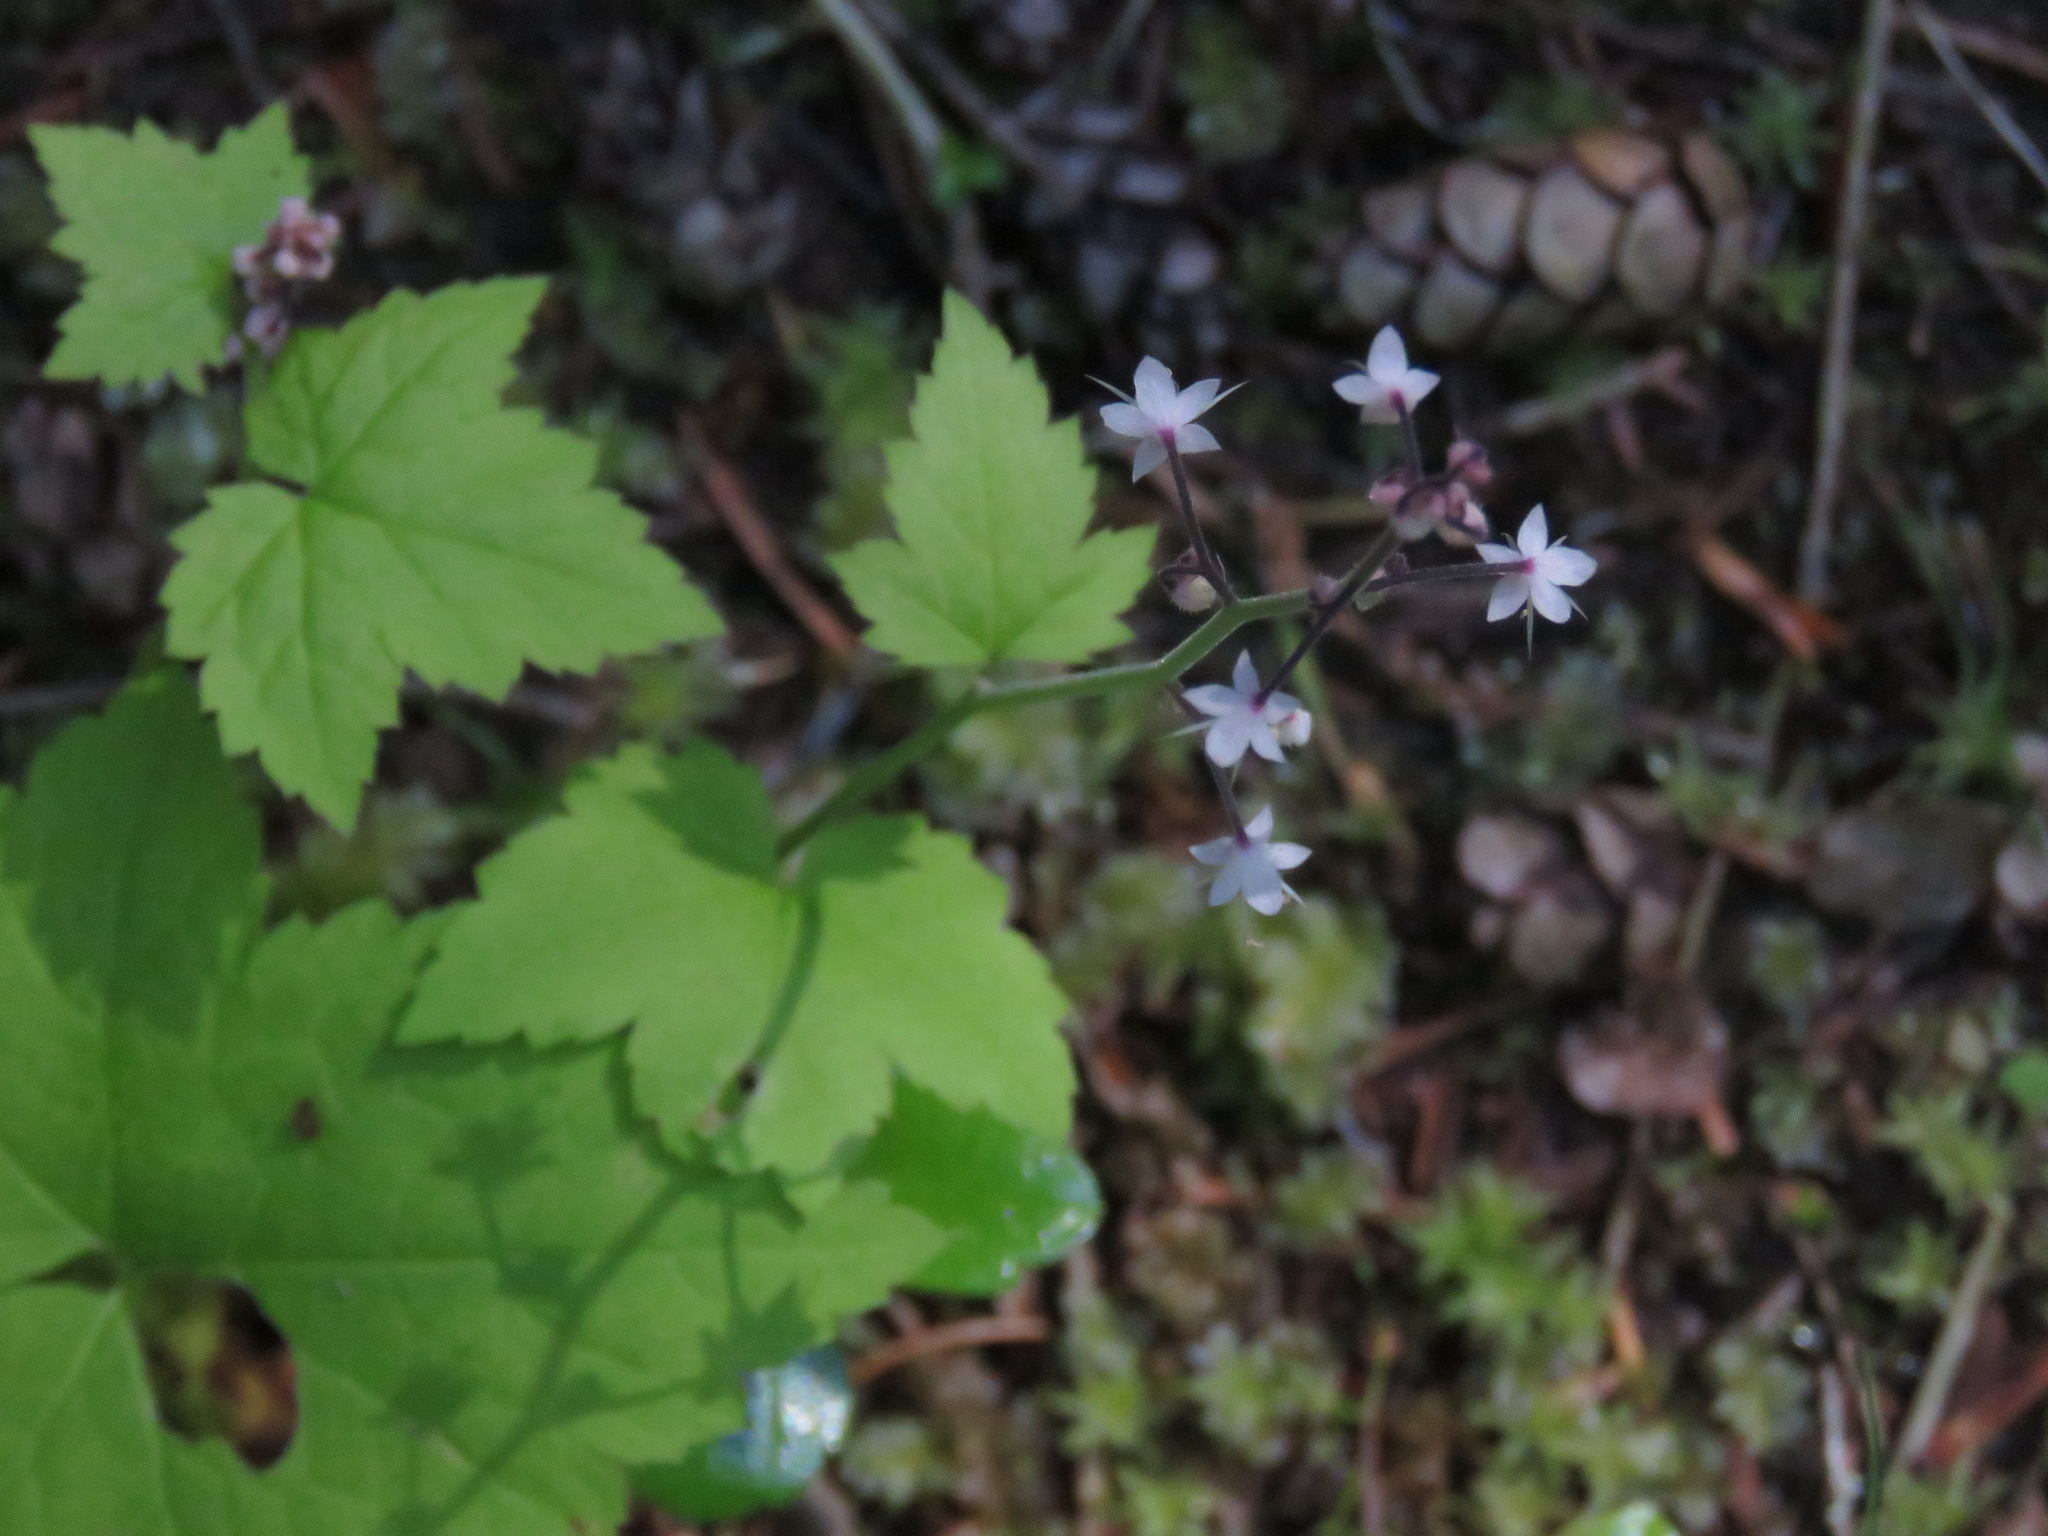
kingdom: Plantae
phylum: Tracheophyta
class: Magnoliopsida
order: Saxifragales
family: Saxifragaceae
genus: Tiarella
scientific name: Tiarella trifoliata
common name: Sugar-scoop
